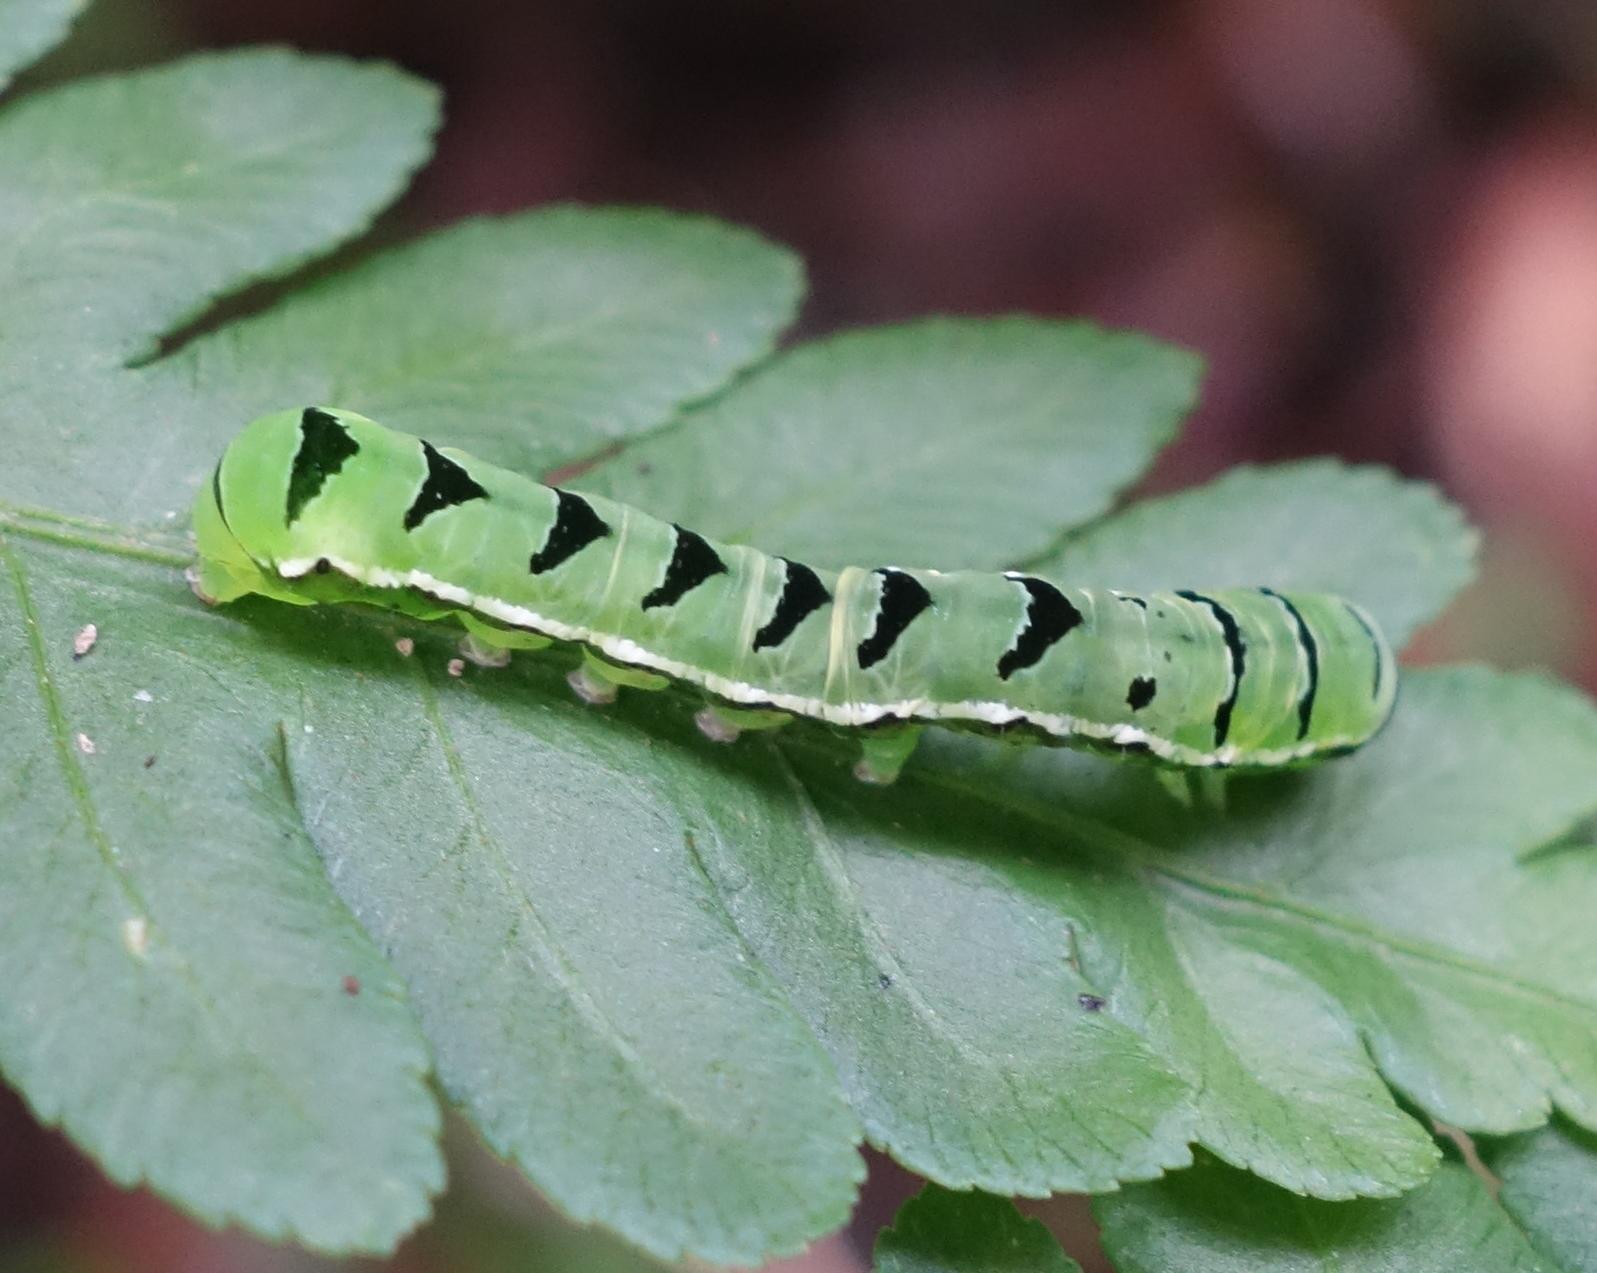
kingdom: Animalia
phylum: Arthropoda
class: Insecta
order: Lepidoptera
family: Noctuidae
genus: Callopistria
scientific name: Callopistria japonibia
